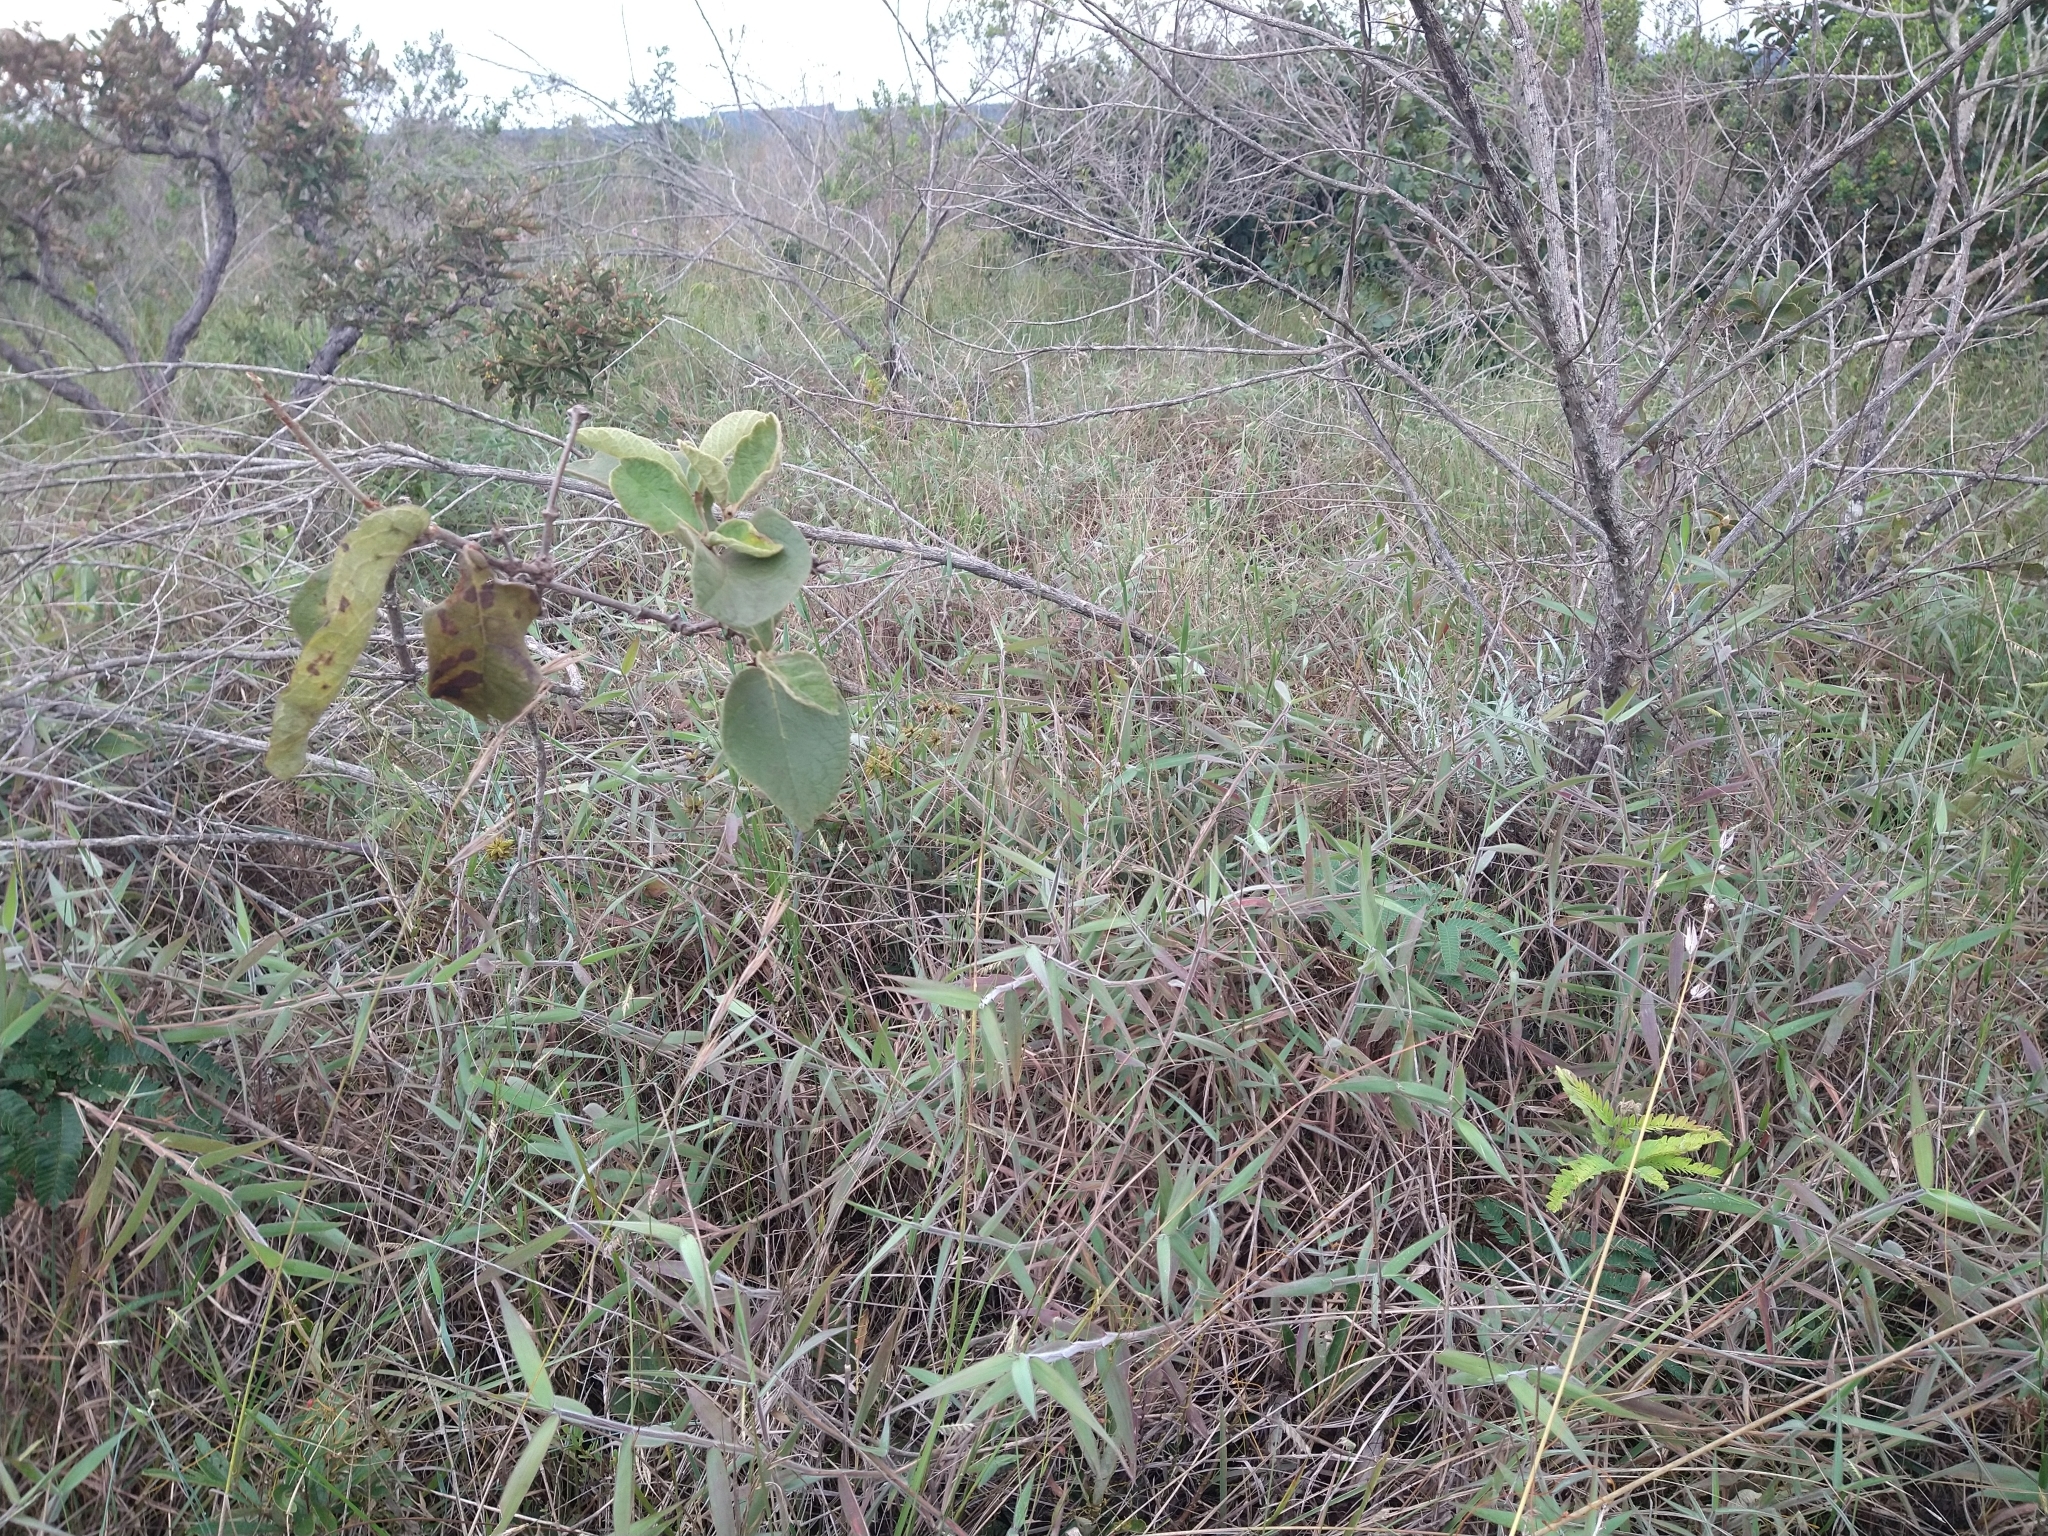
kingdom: Plantae
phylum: Tracheophyta
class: Liliopsida
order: Poales
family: Poaceae
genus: Melinis
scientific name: Melinis minutiflora
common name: Molassesgrass
